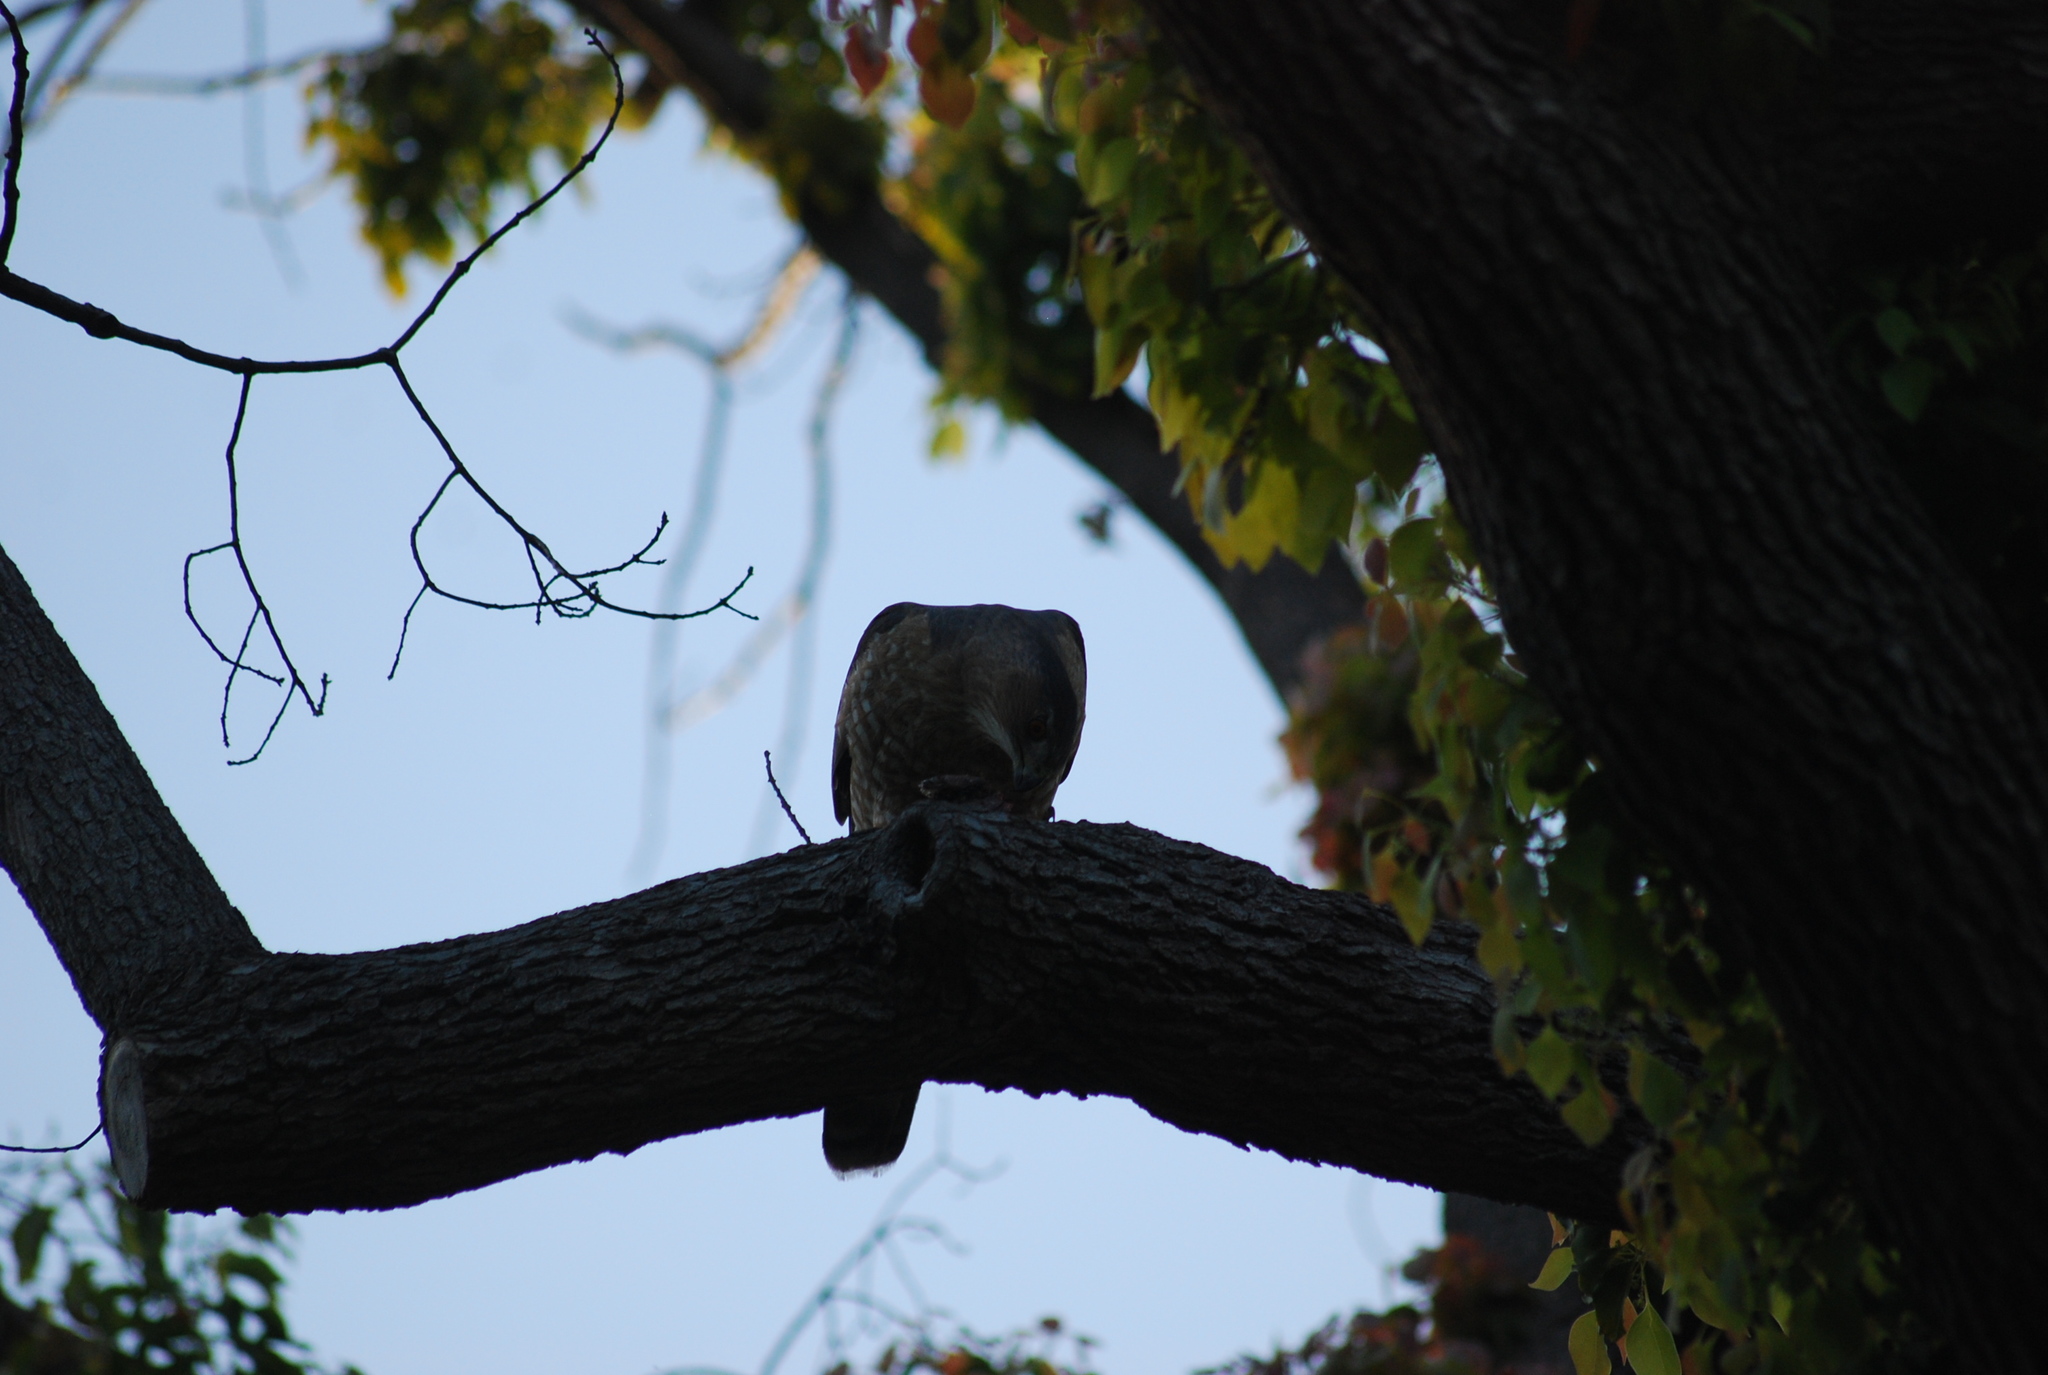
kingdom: Animalia
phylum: Chordata
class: Aves
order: Accipitriformes
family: Accipitridae
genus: Accipiter
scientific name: Accipiter cooperii
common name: Cooper's hawk
